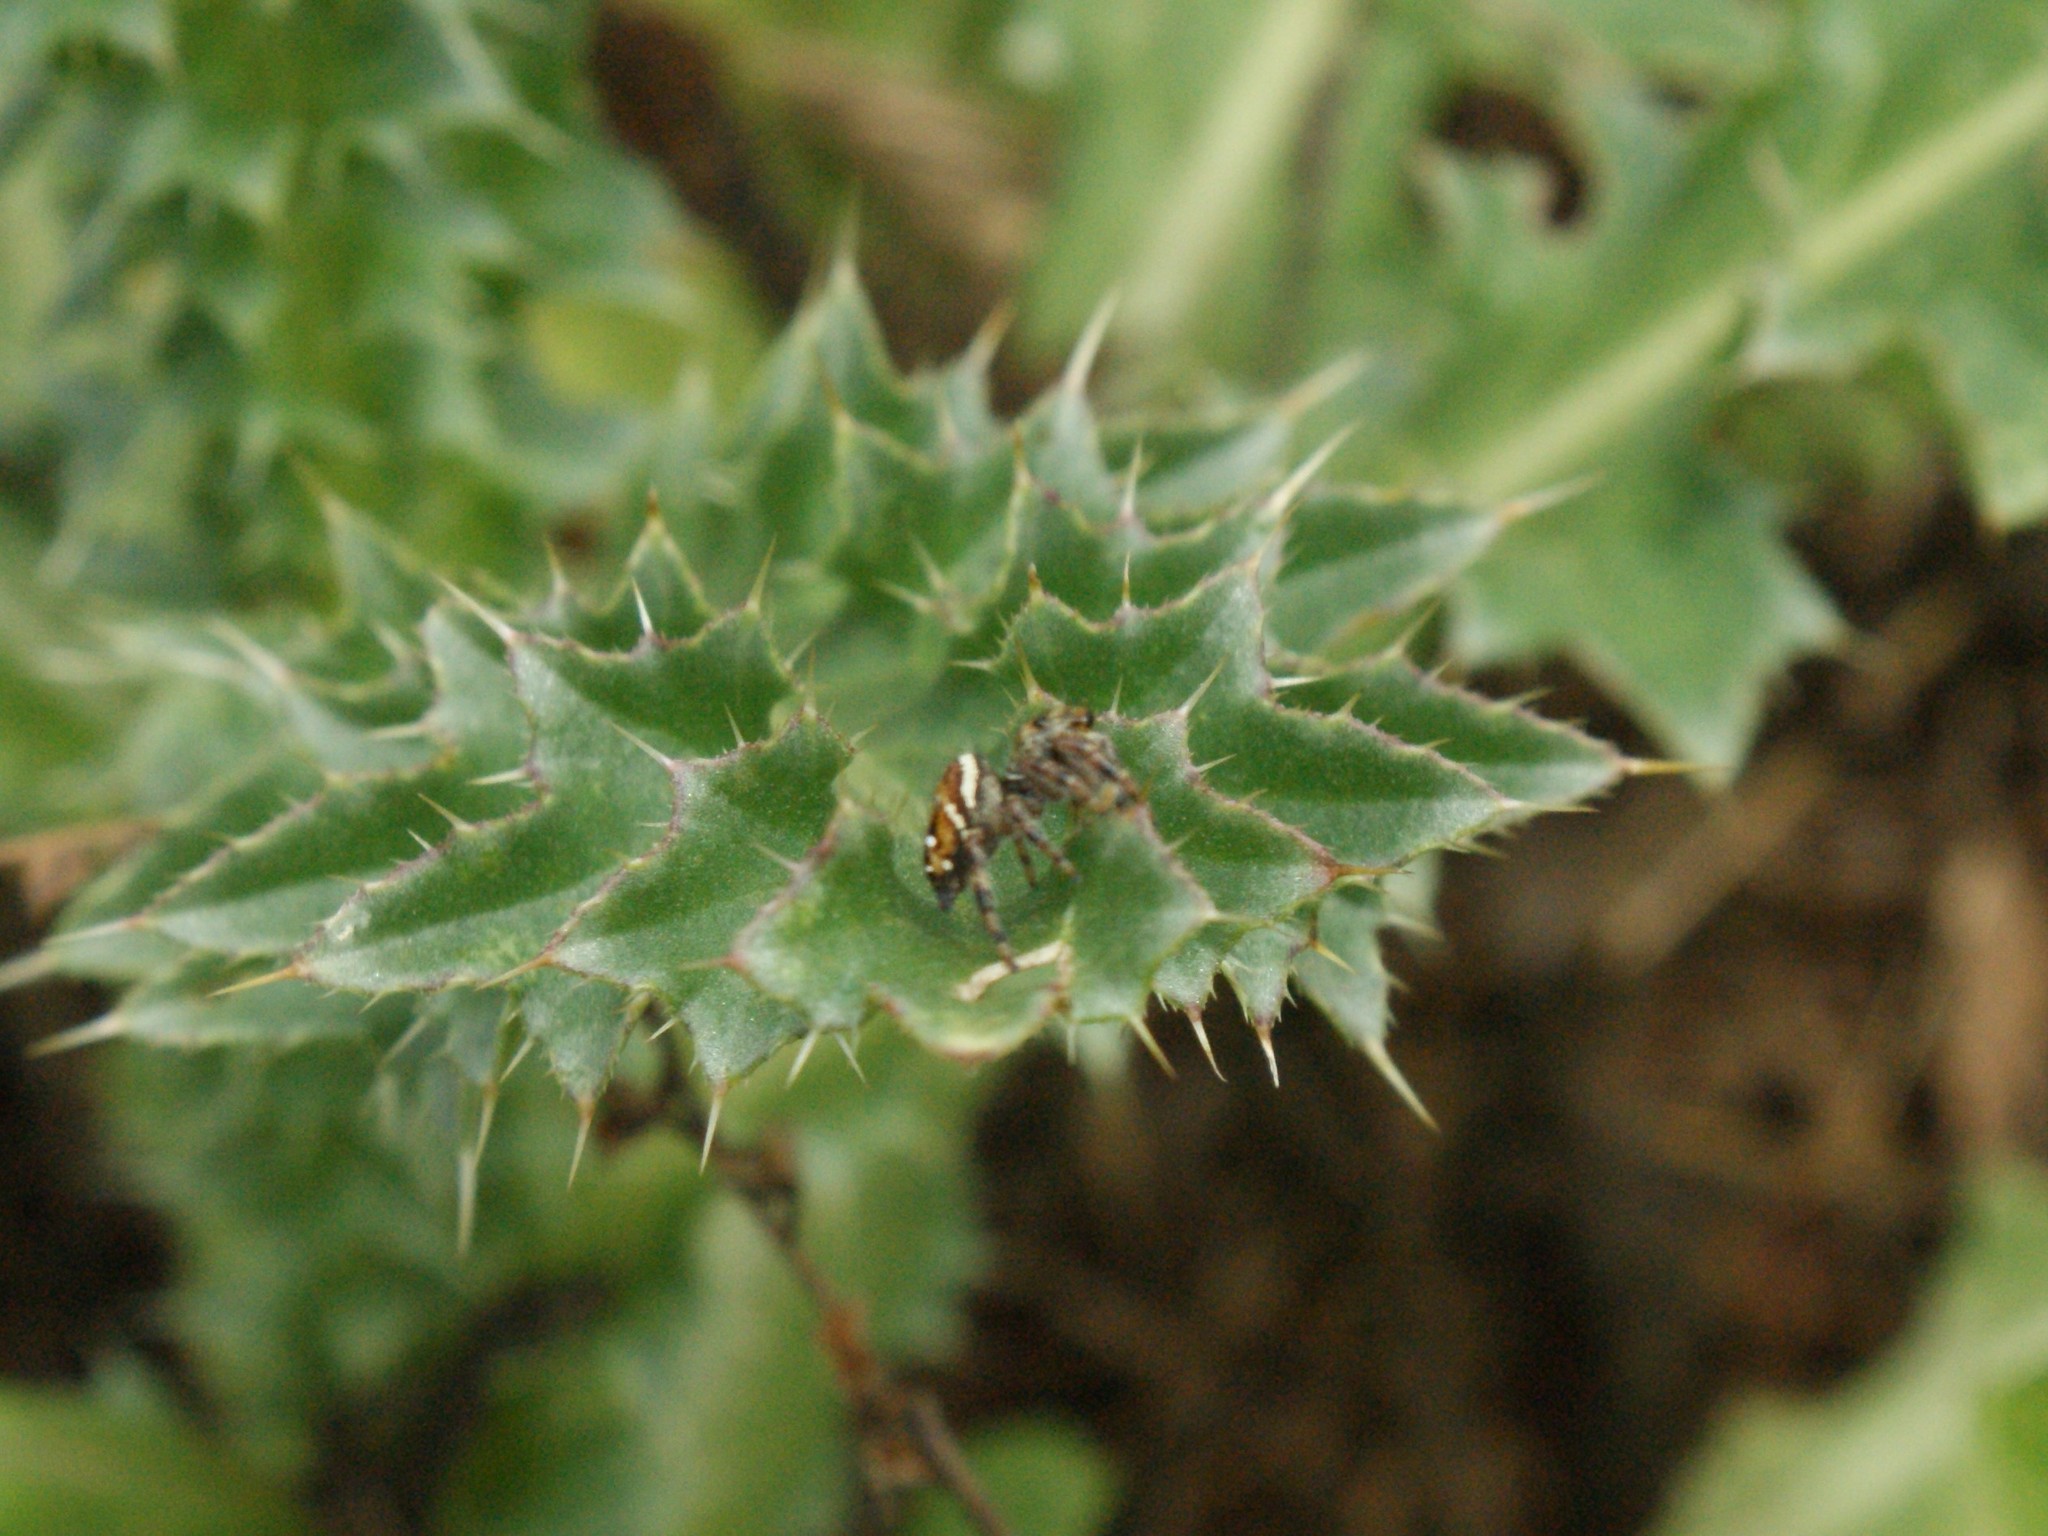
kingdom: Animalia
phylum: Arthropoda
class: Arachnida
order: Araneae
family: Salticidae
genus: Paraphidippus
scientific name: Paraphidippus aurantius
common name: Jumping spiders
